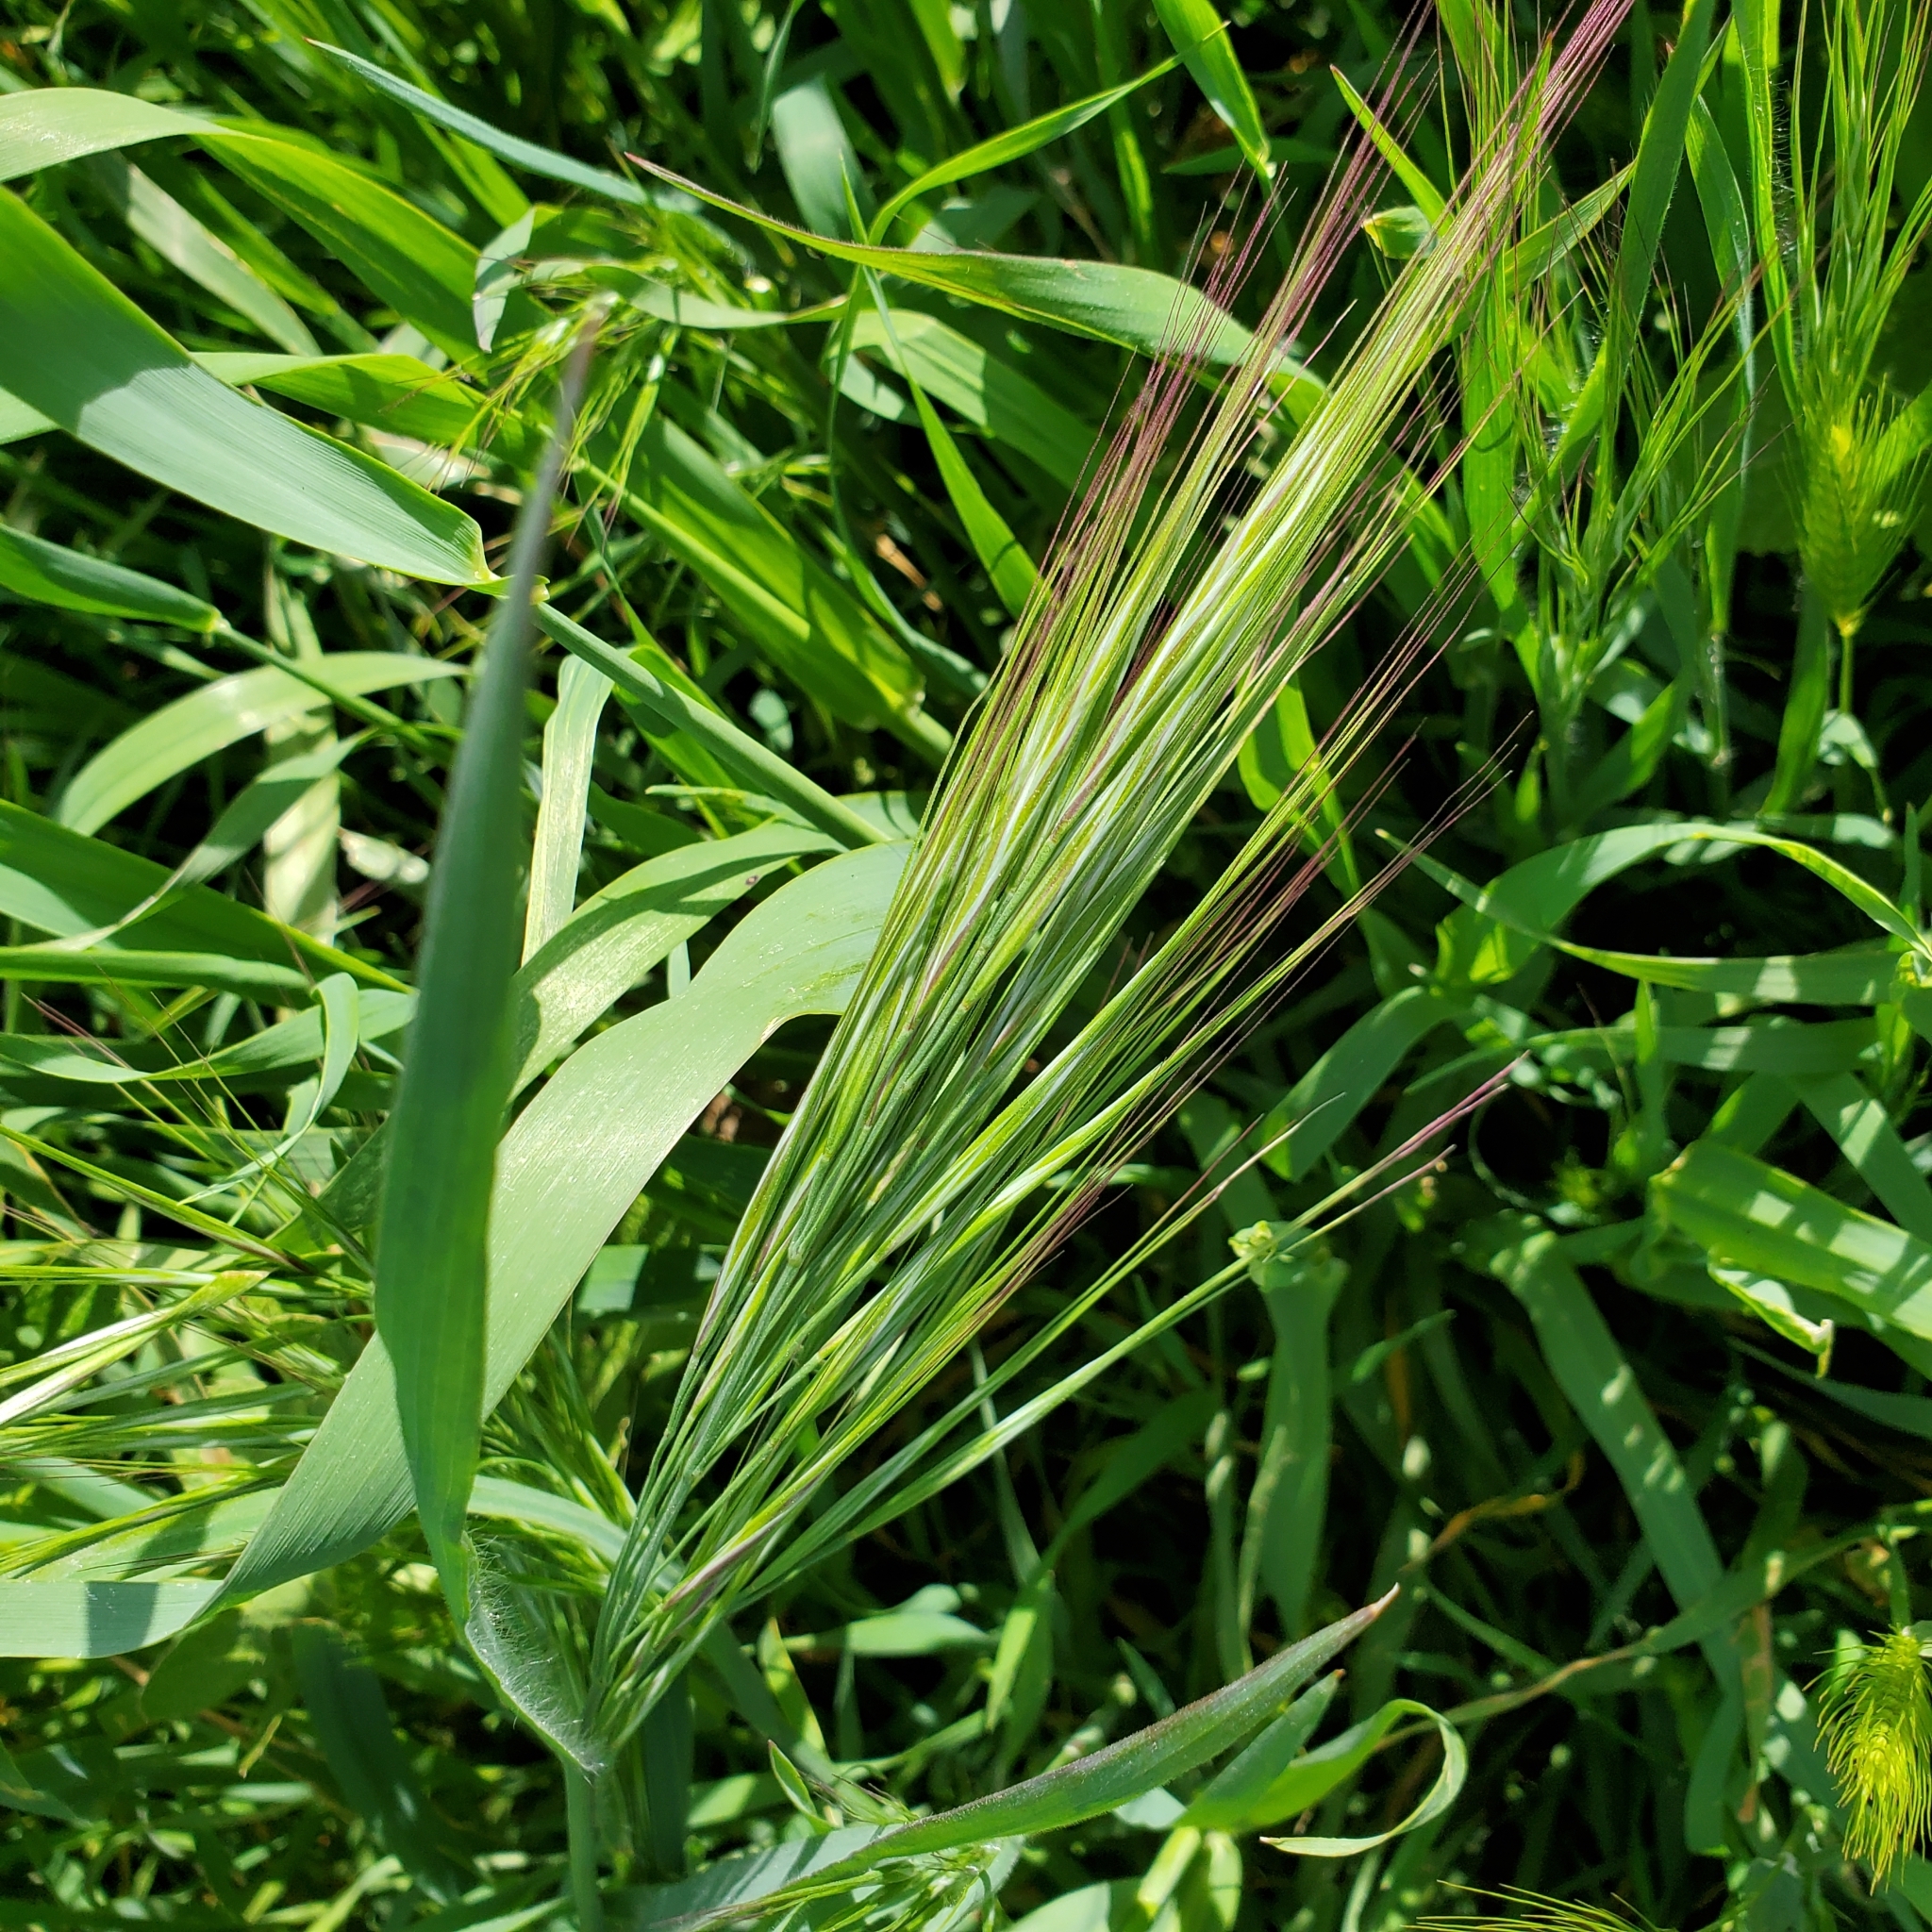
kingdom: Plantae
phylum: Tracheophyta
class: Liliopsida
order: Poales
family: Poaceae
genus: Bromus
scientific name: Bromus diandrus
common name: Ripgut brome
